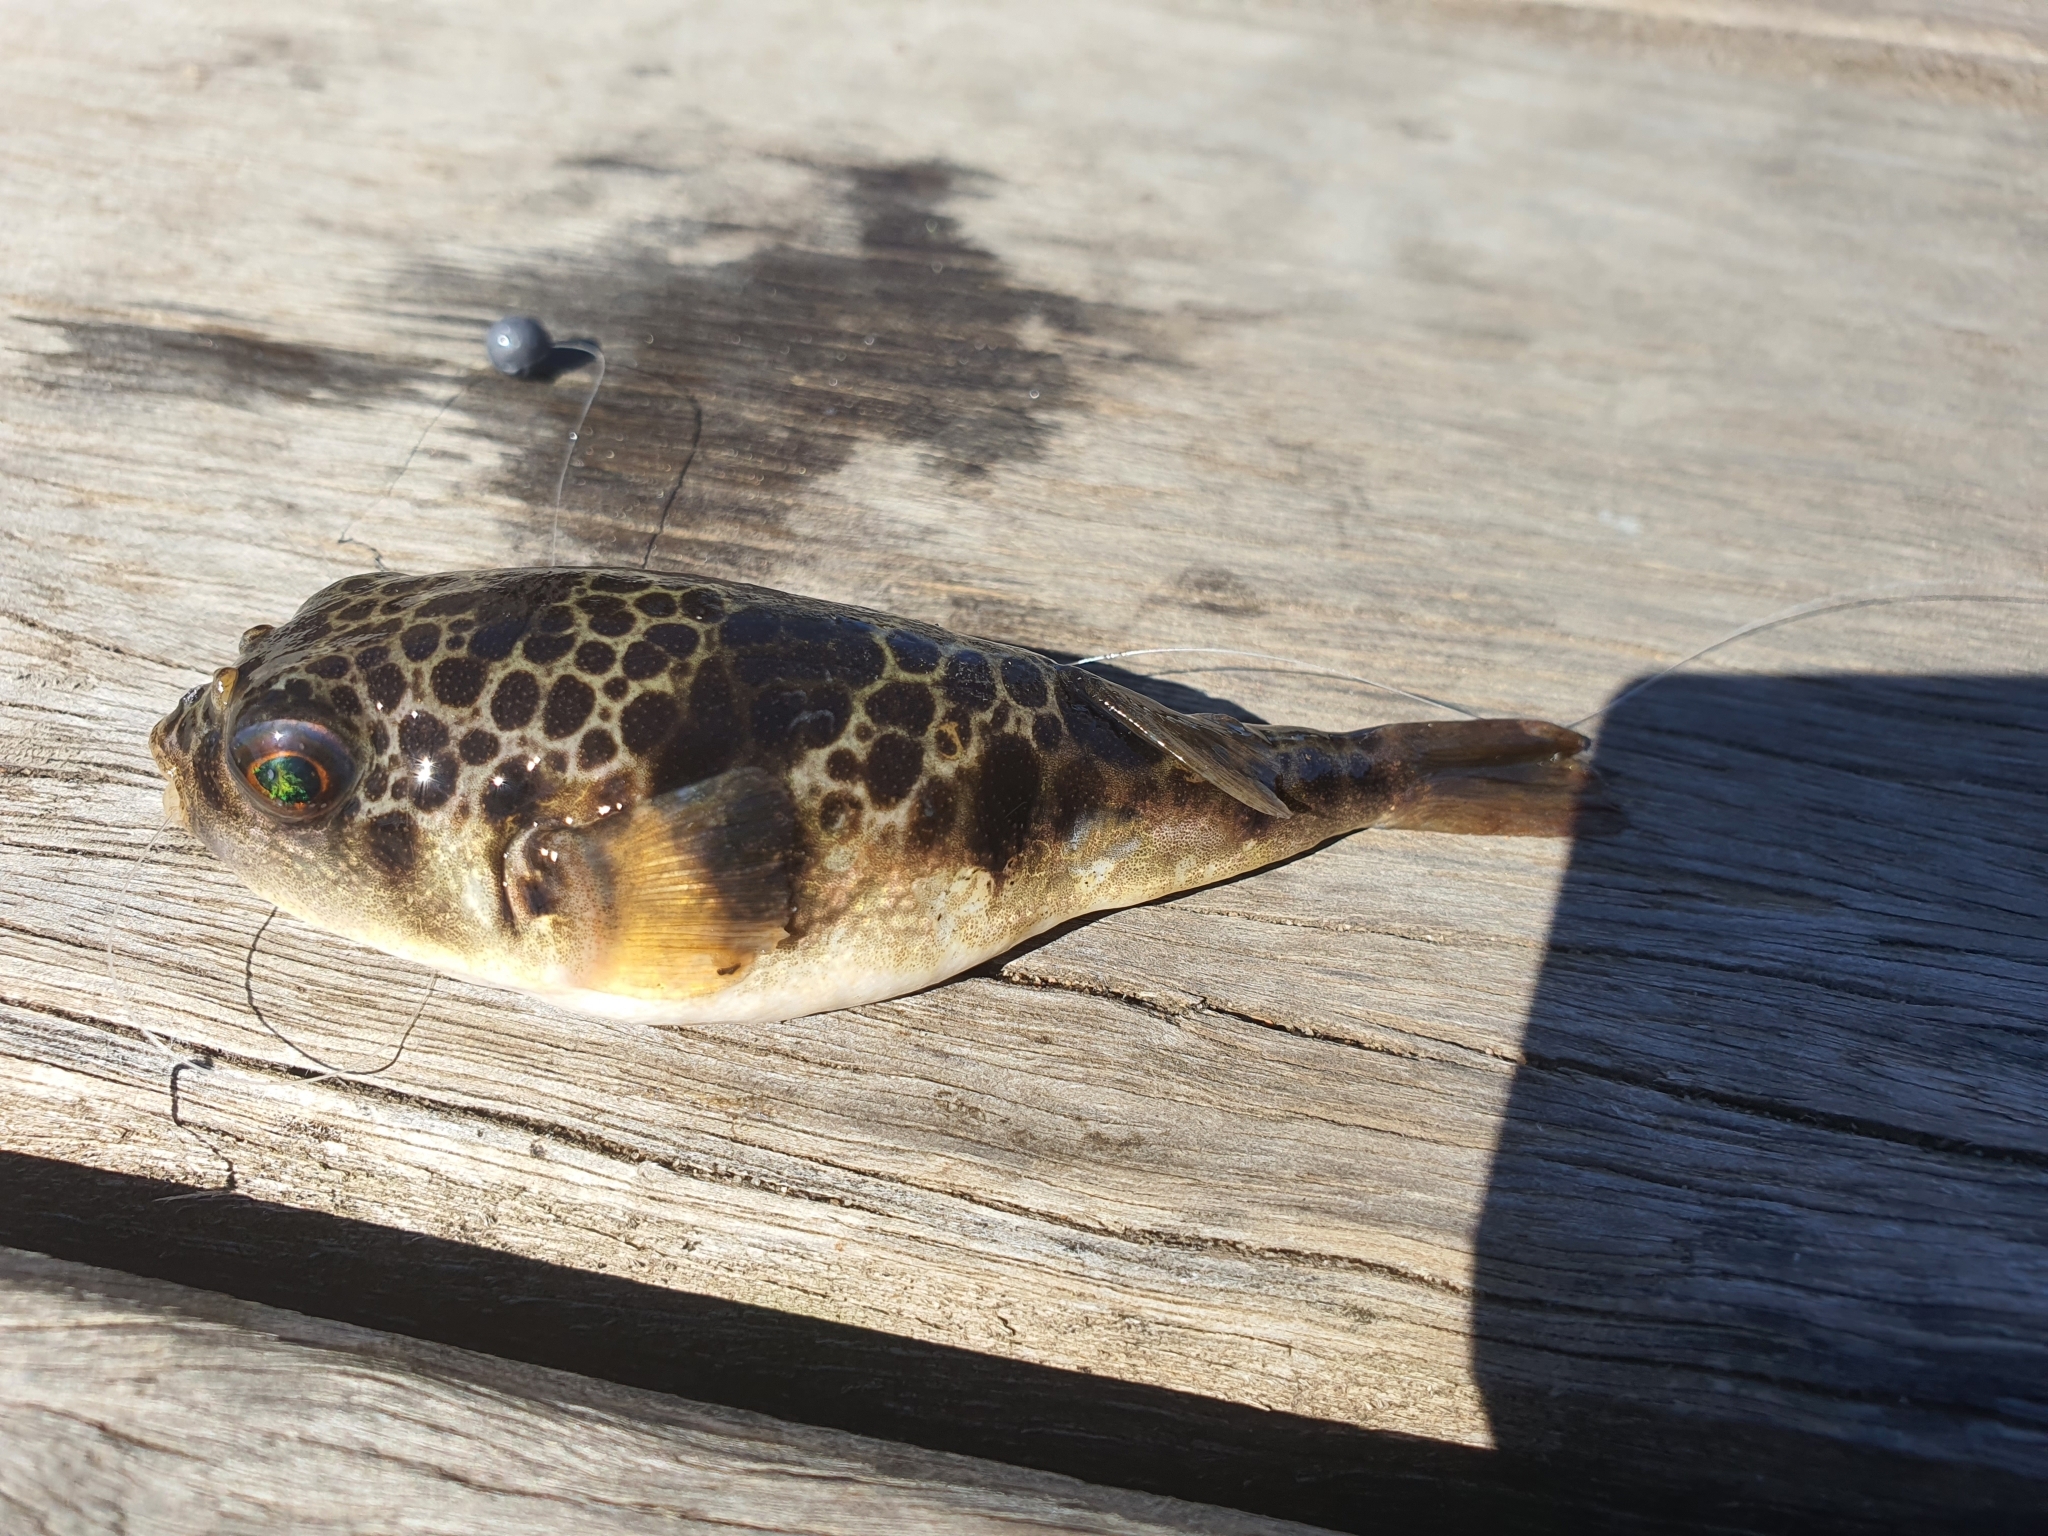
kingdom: Animalia
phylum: Chordata
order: Tetraodontiformes
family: Tetraodontidae
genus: Tetractenos
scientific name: Tetractenos glaber
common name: Smooth toadfish
